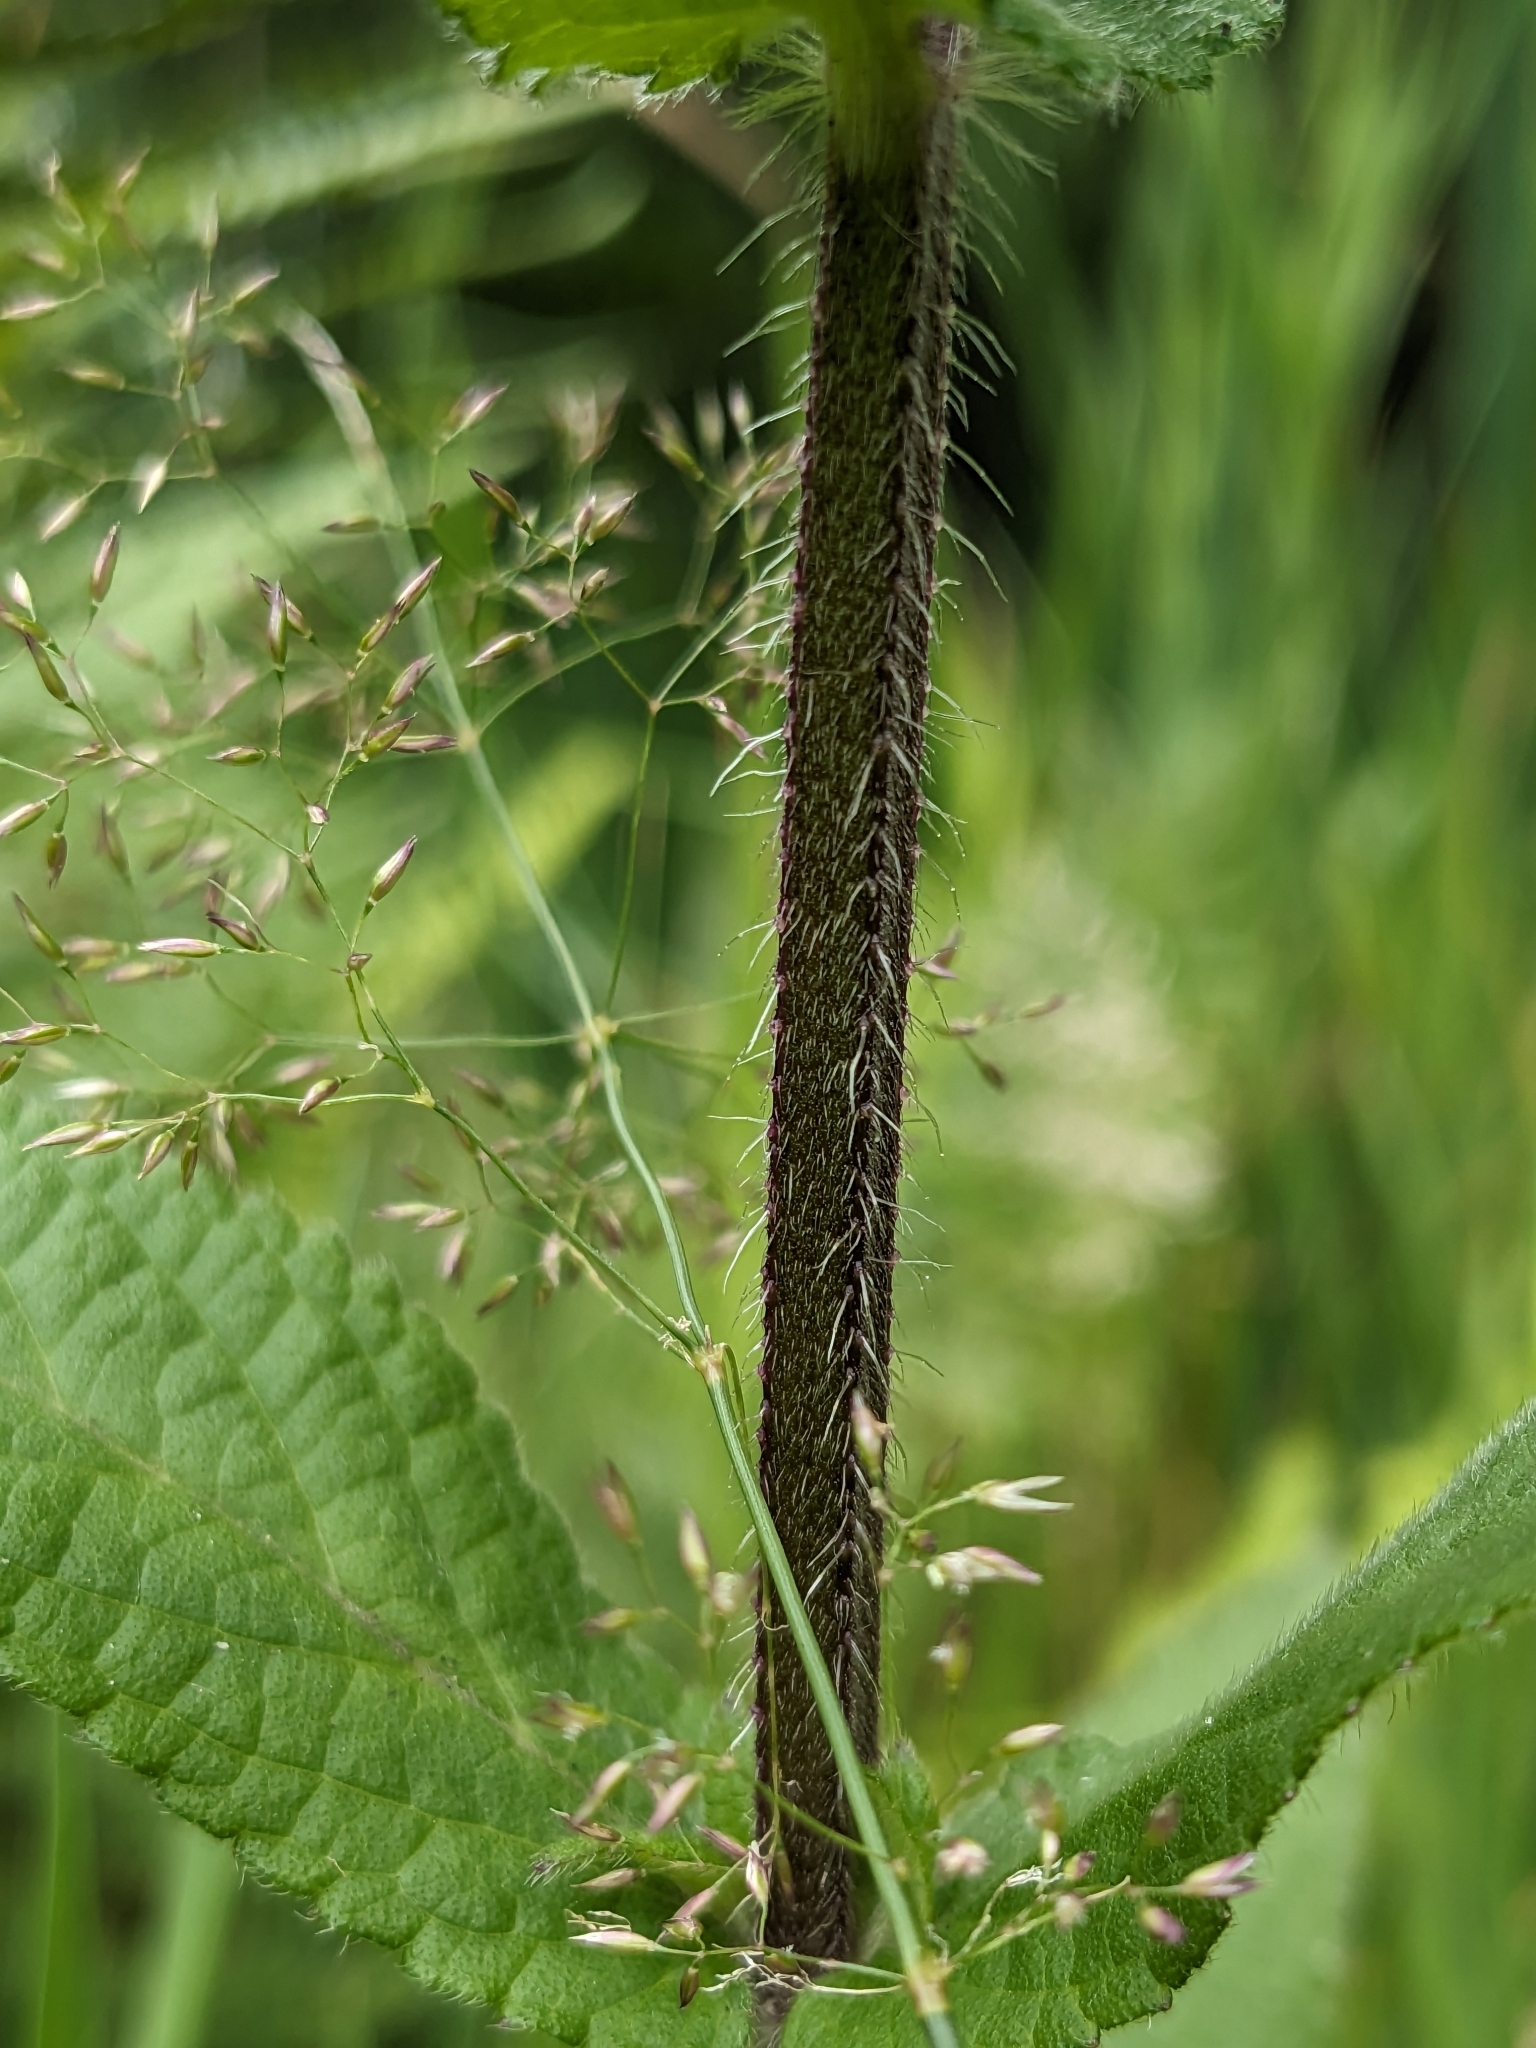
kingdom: Plantae
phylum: Tracheophyta
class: Magnoliopsida
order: Lamiales
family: Lamiaceae
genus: Stachys
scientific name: Stachys palustris
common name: Marsh woundwort
